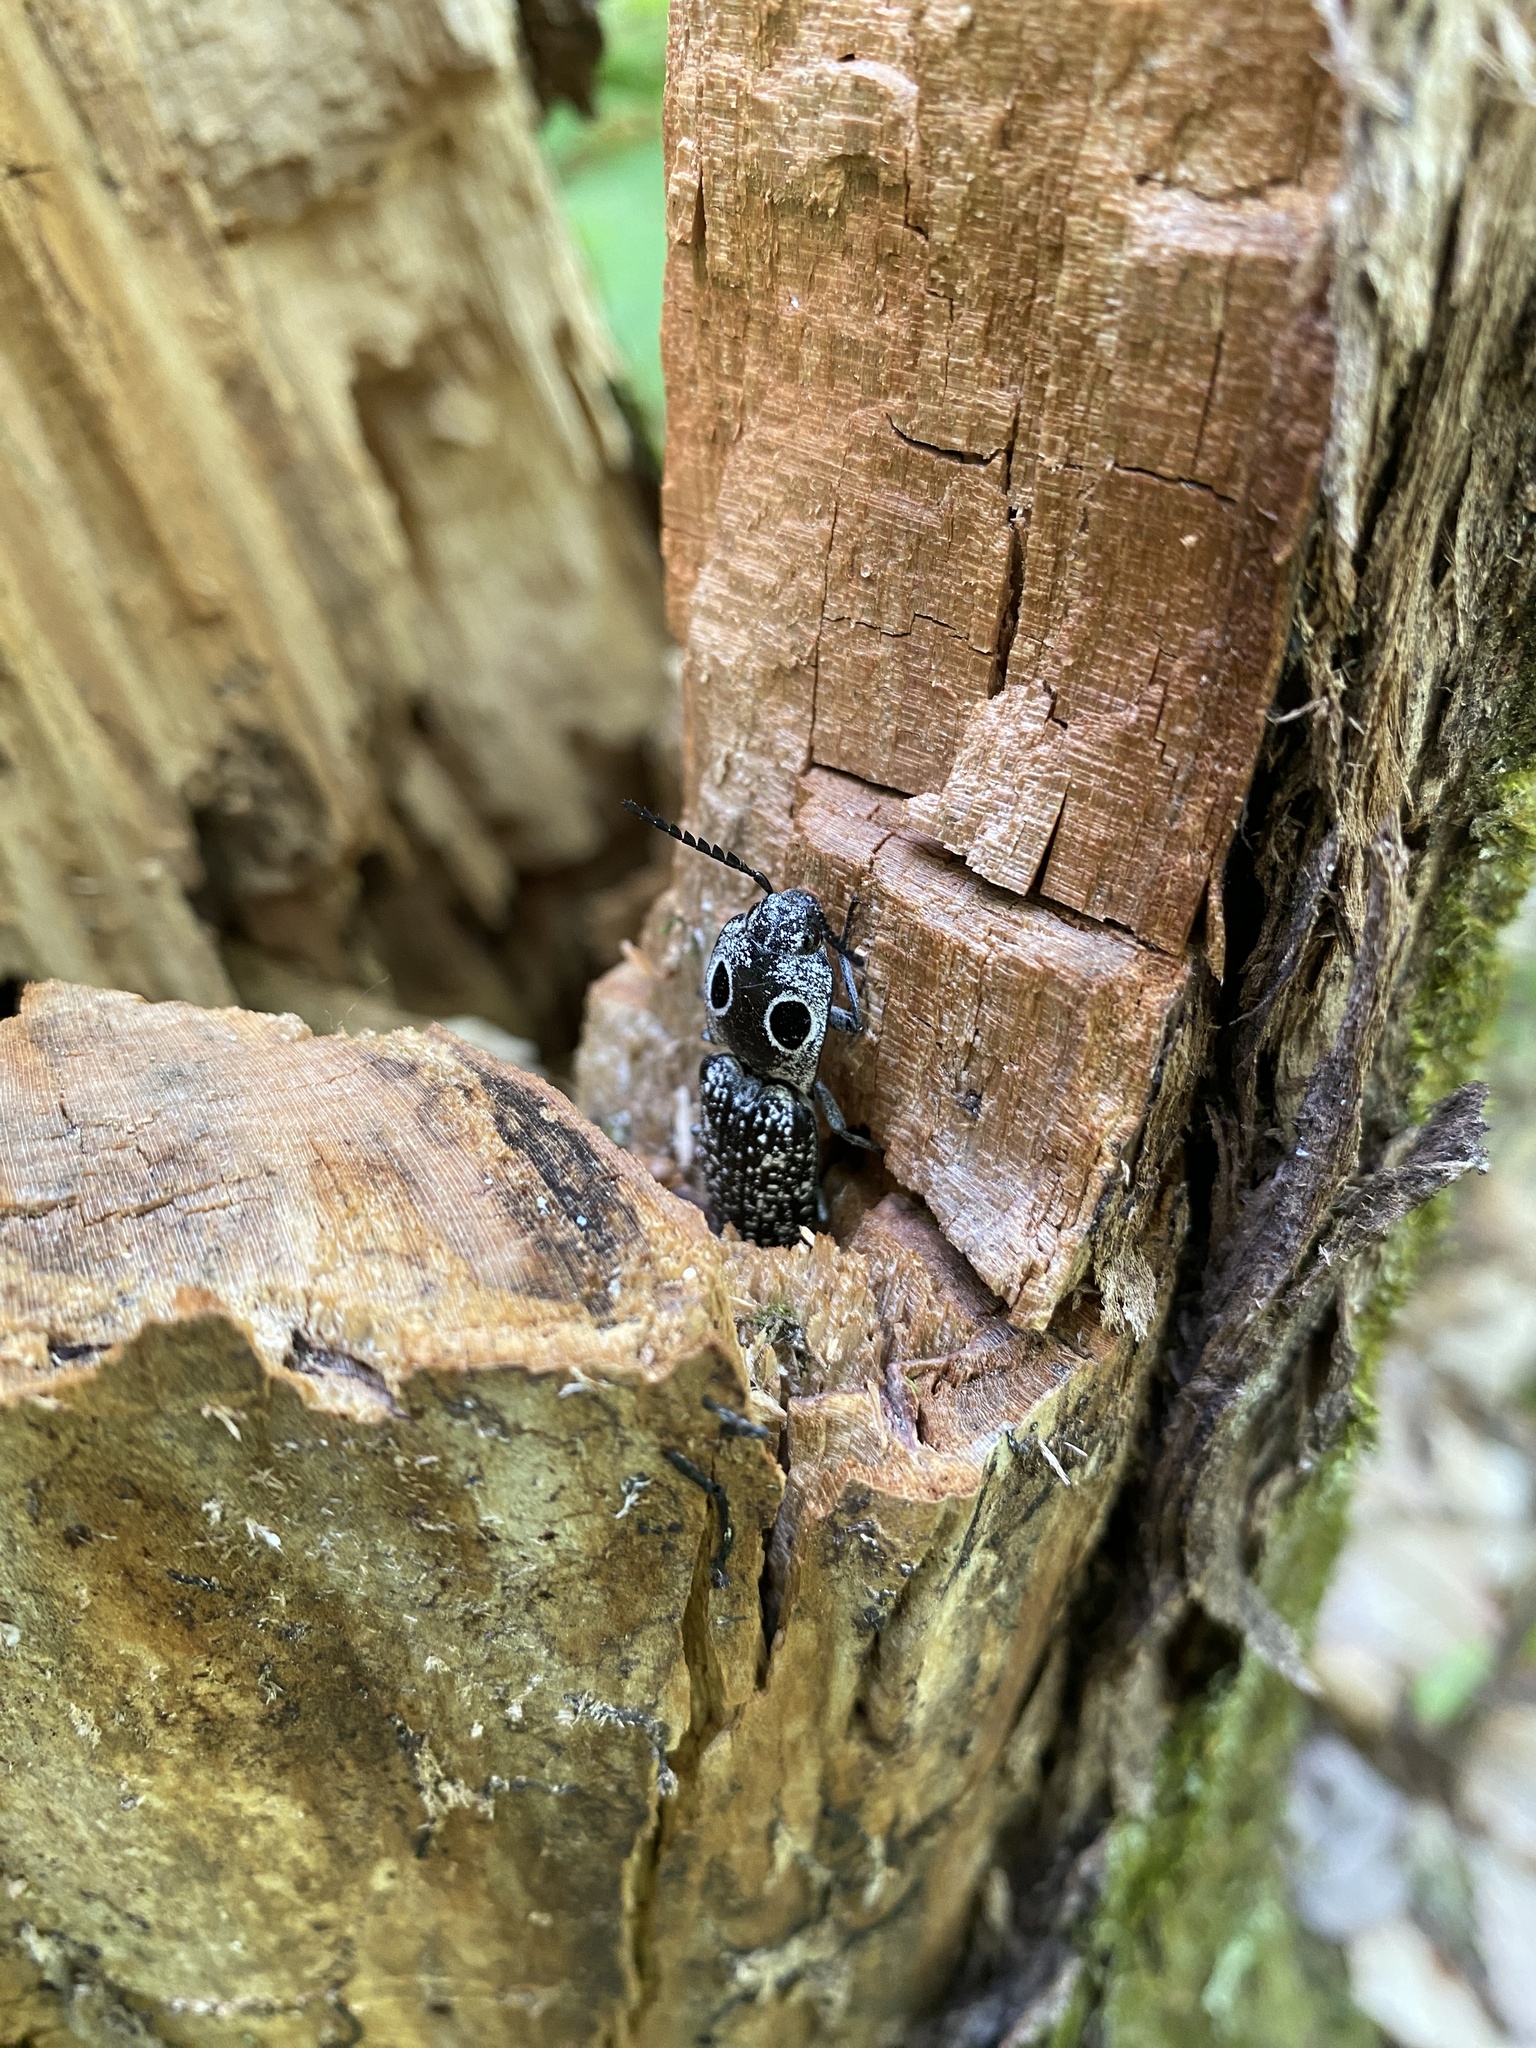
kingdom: Animalia
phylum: Arthropoda
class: Insecta
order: Coleoptera
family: Elateridae
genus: Alaus
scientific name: Alaus oculatus
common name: Eastern eyed click beetle
